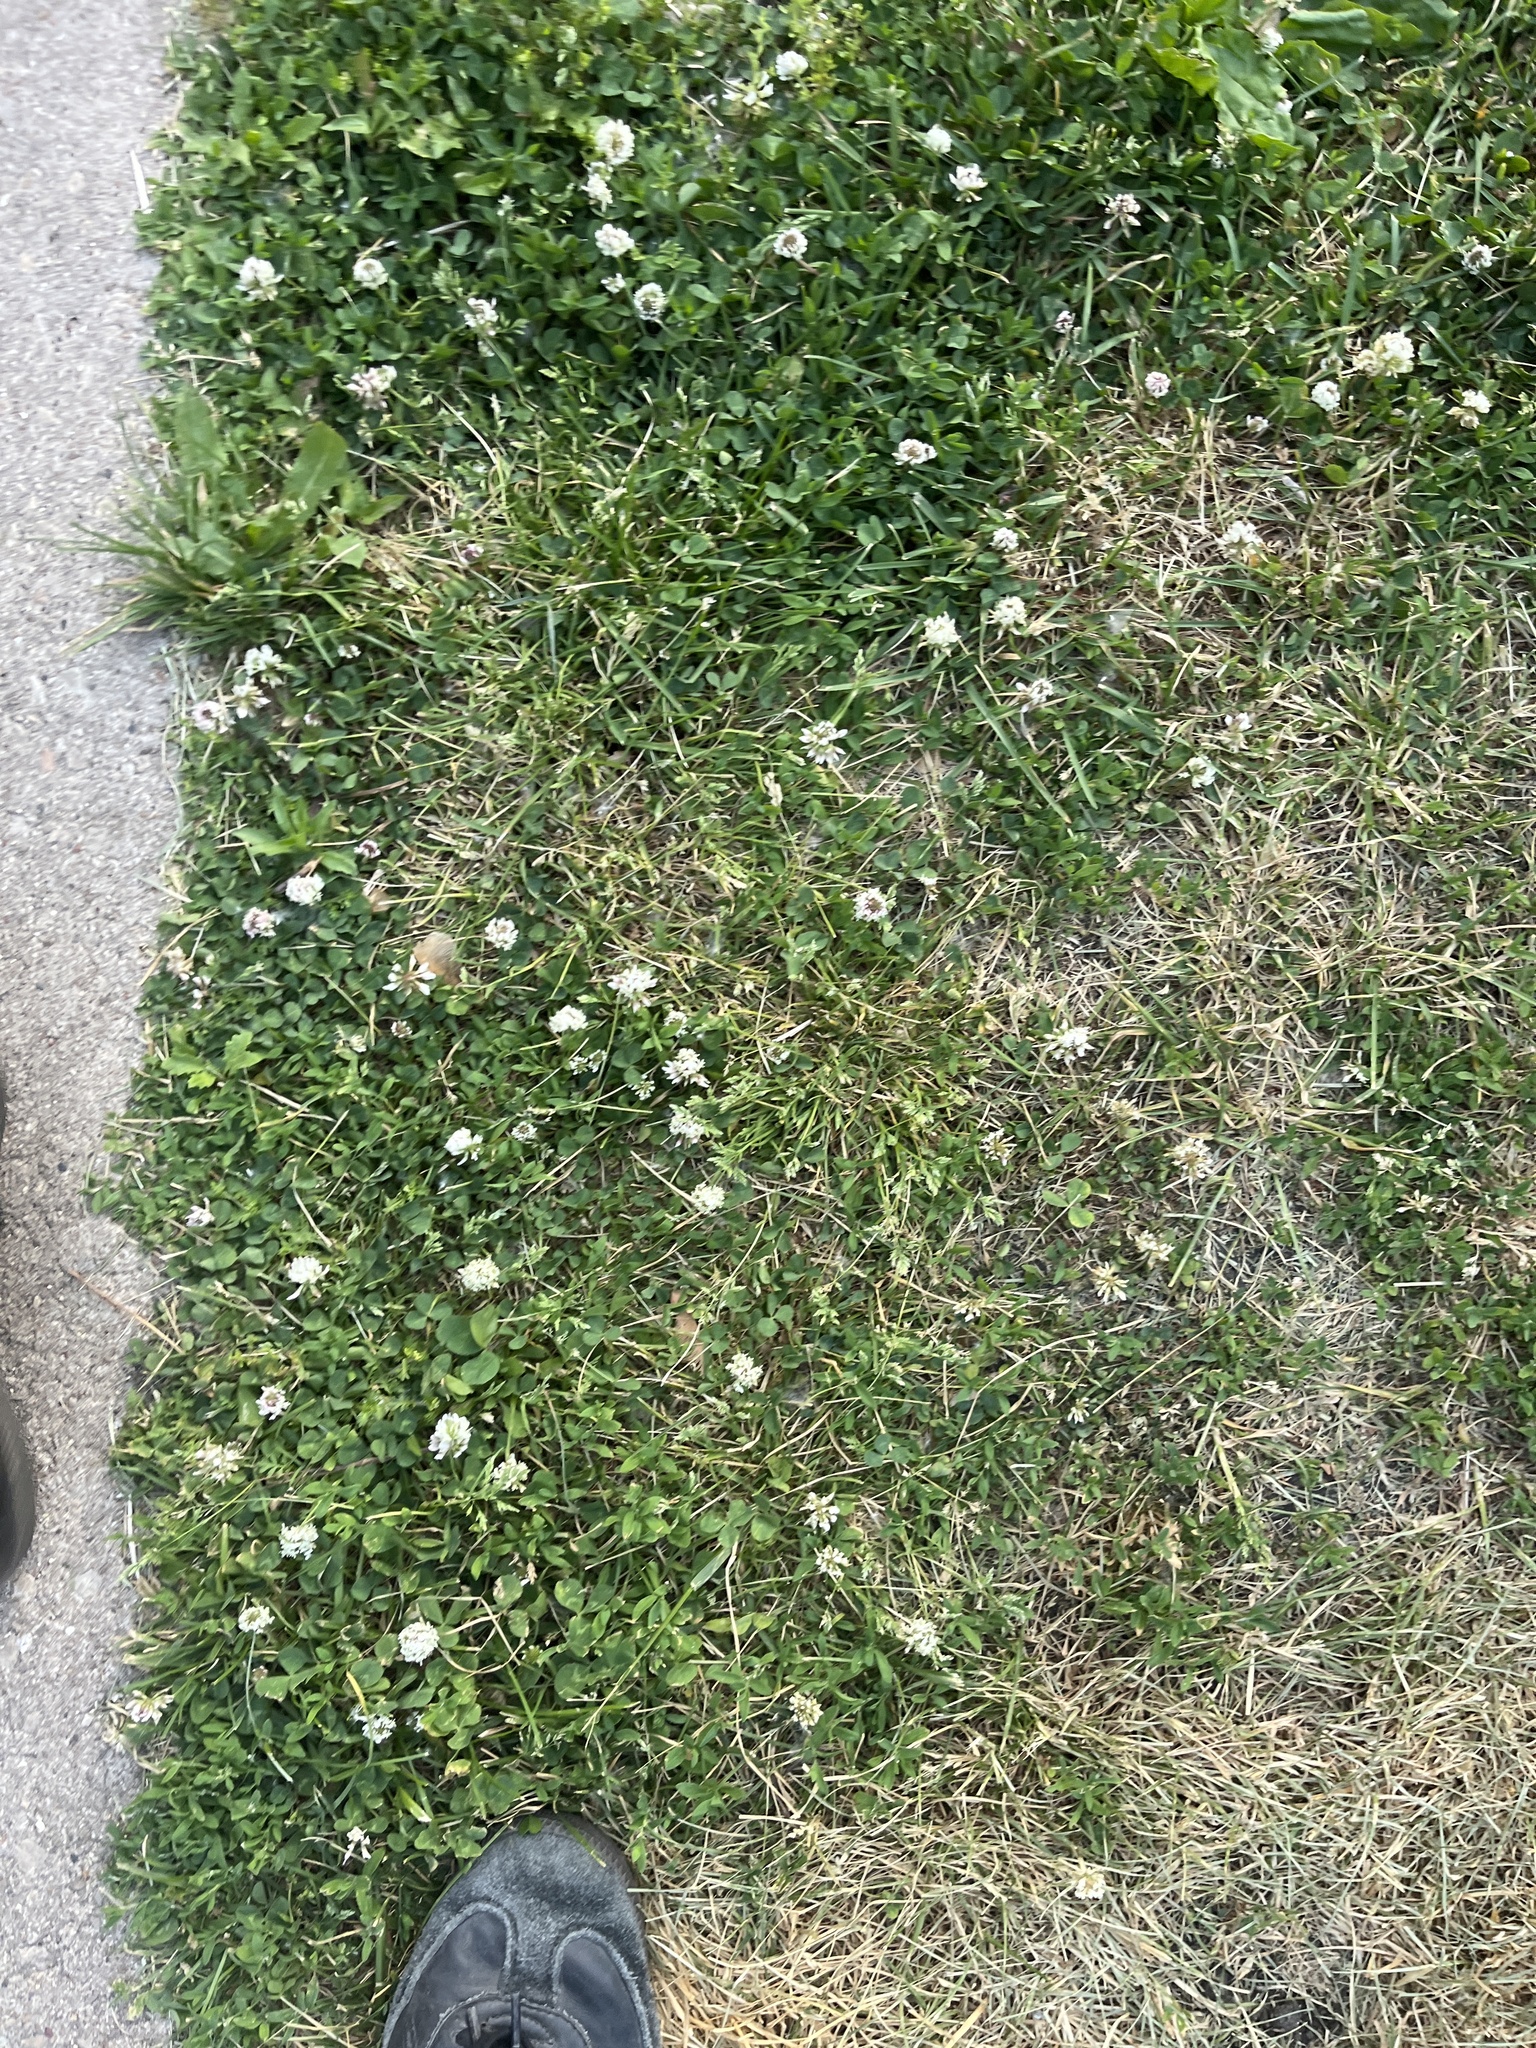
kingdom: Plantae
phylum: Tracheophyta
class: Magnoliopsida
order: Fabales
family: Fabaceae
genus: Trifolium
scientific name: Trifolium repens
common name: White clover
